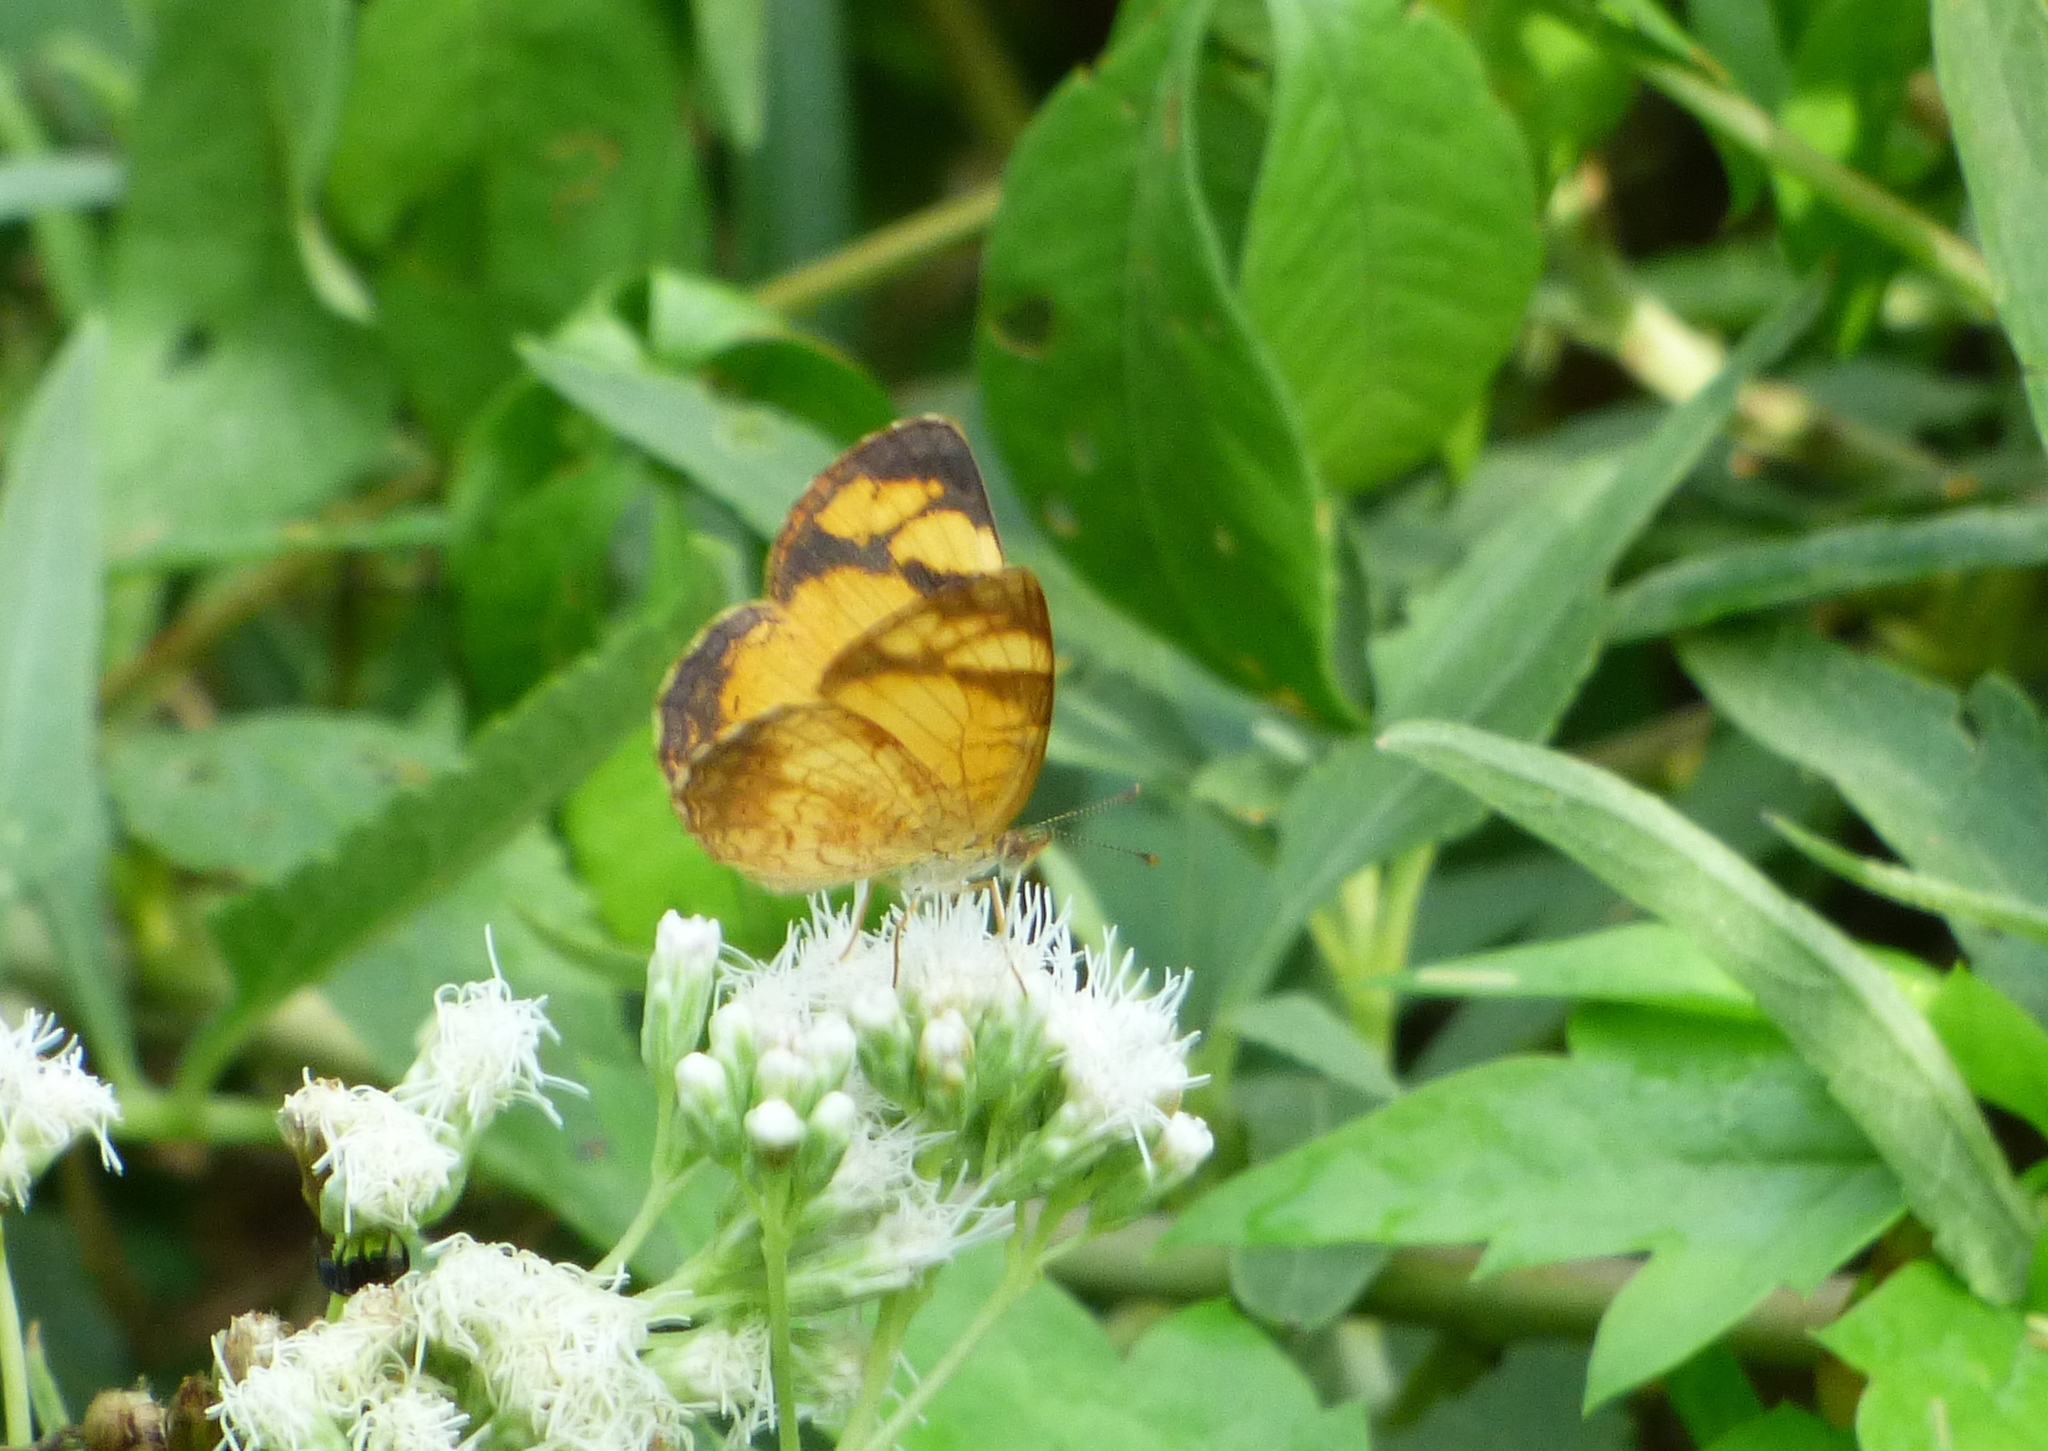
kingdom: Animalia
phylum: Arthropoda
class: Insecta
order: Lepidoptera
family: Nymphalidae
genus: Tegosa
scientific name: Tegosa claudina
